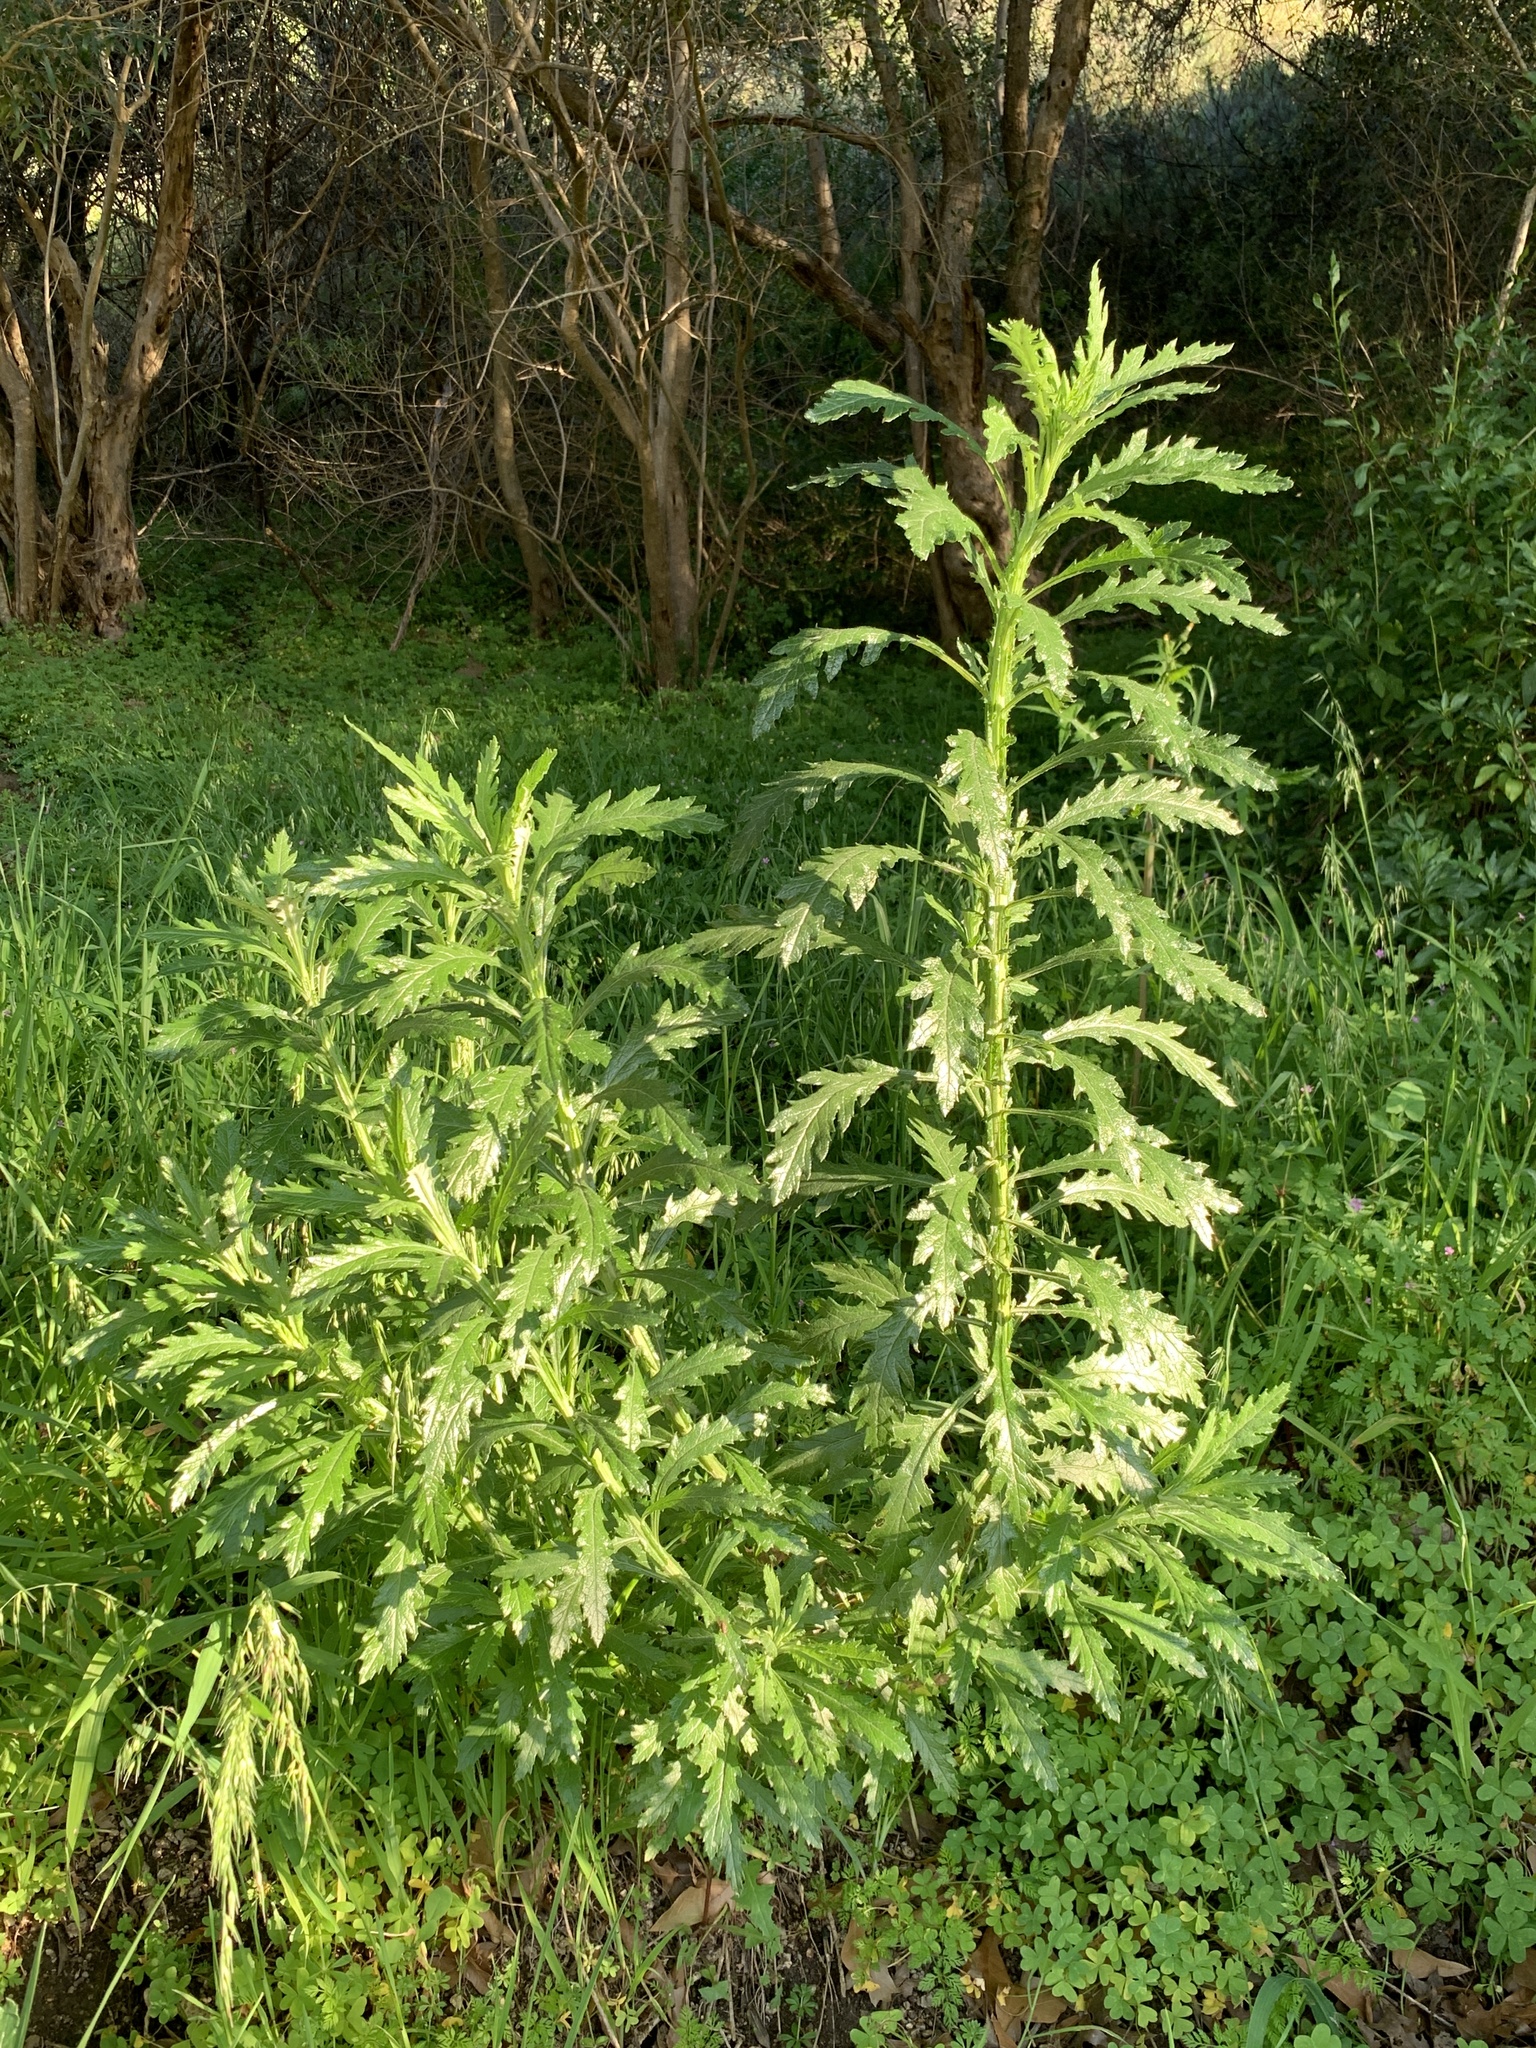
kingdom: Plantae
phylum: Tracheophyta
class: Magnoliopsida
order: Asterales
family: Asteraceae
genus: Senecio
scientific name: Senecio pterophorus
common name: Shoddy ragwort
